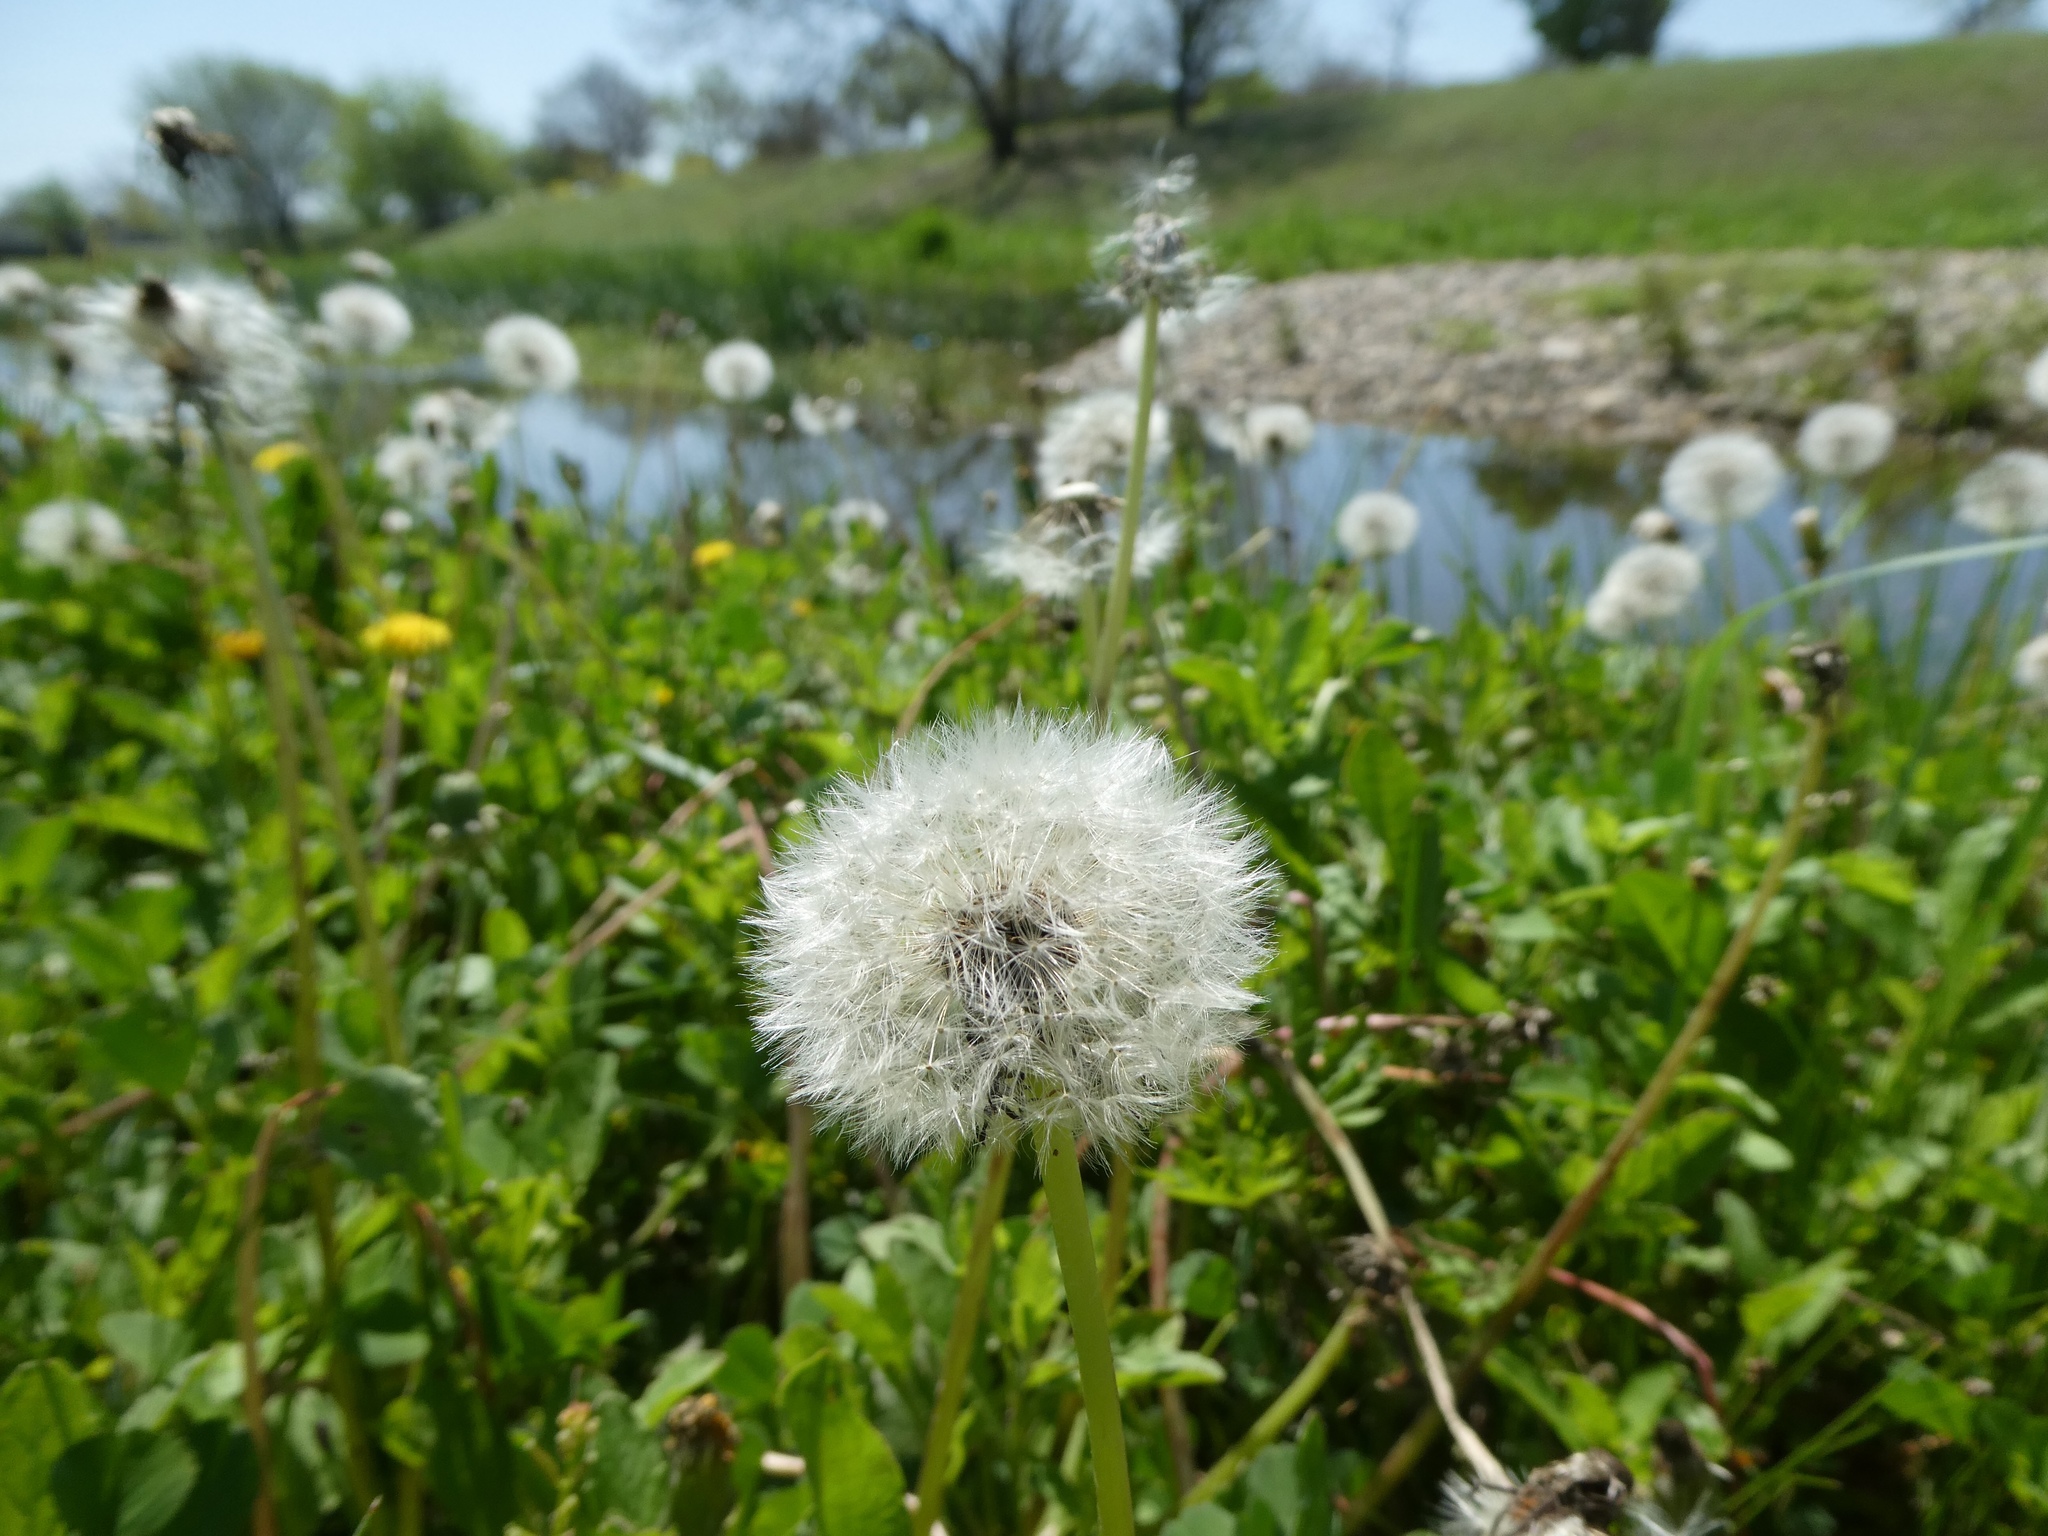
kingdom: Plantae
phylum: Tracheophyta
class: Magnoliopsida
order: Asterales
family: Asteraceae
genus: Taraxacum
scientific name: Taraxacum officinale
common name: Common dandelion
